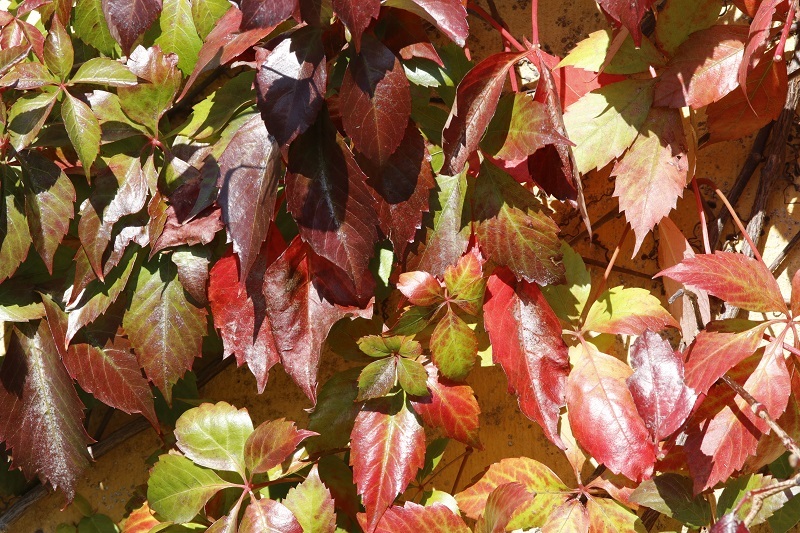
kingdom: Plantae
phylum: Tracheophyta
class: Magnoliopsida
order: Vitales
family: Vitaceae
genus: Parthenocissus
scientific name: Parthenocissus quinquefolia
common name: Virginia-creeper
